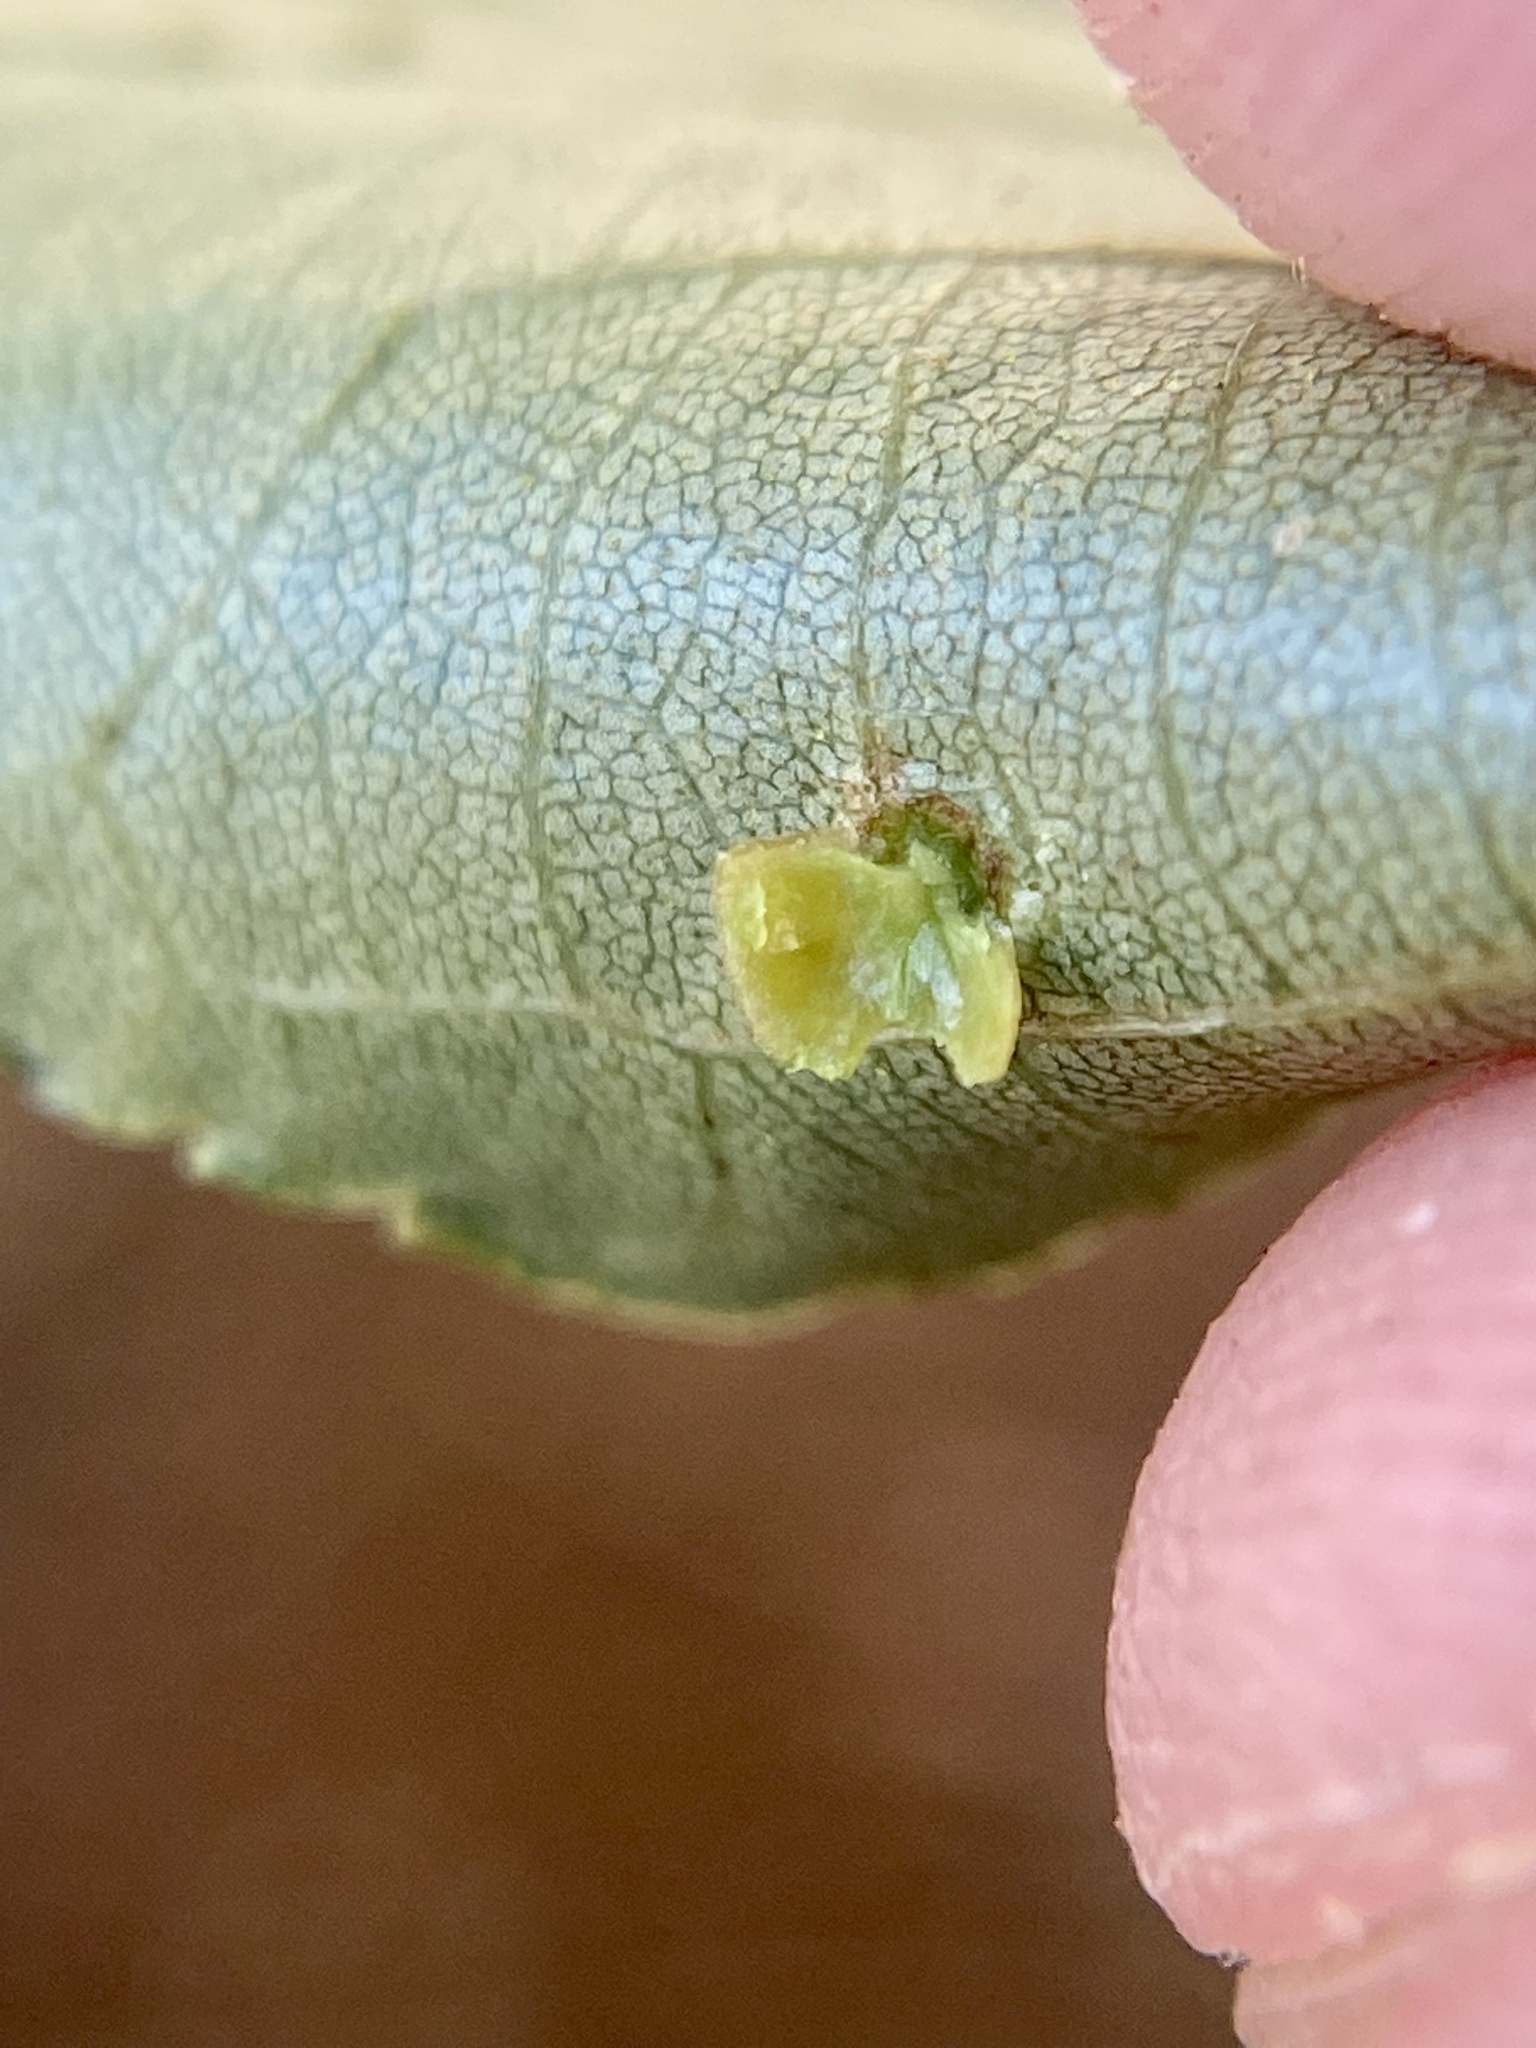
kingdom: Animalia
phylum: Arthropoda
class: Insecta
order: Diptera
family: Cecidomyiidae
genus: Caryomyia
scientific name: Caryomyia caryae
